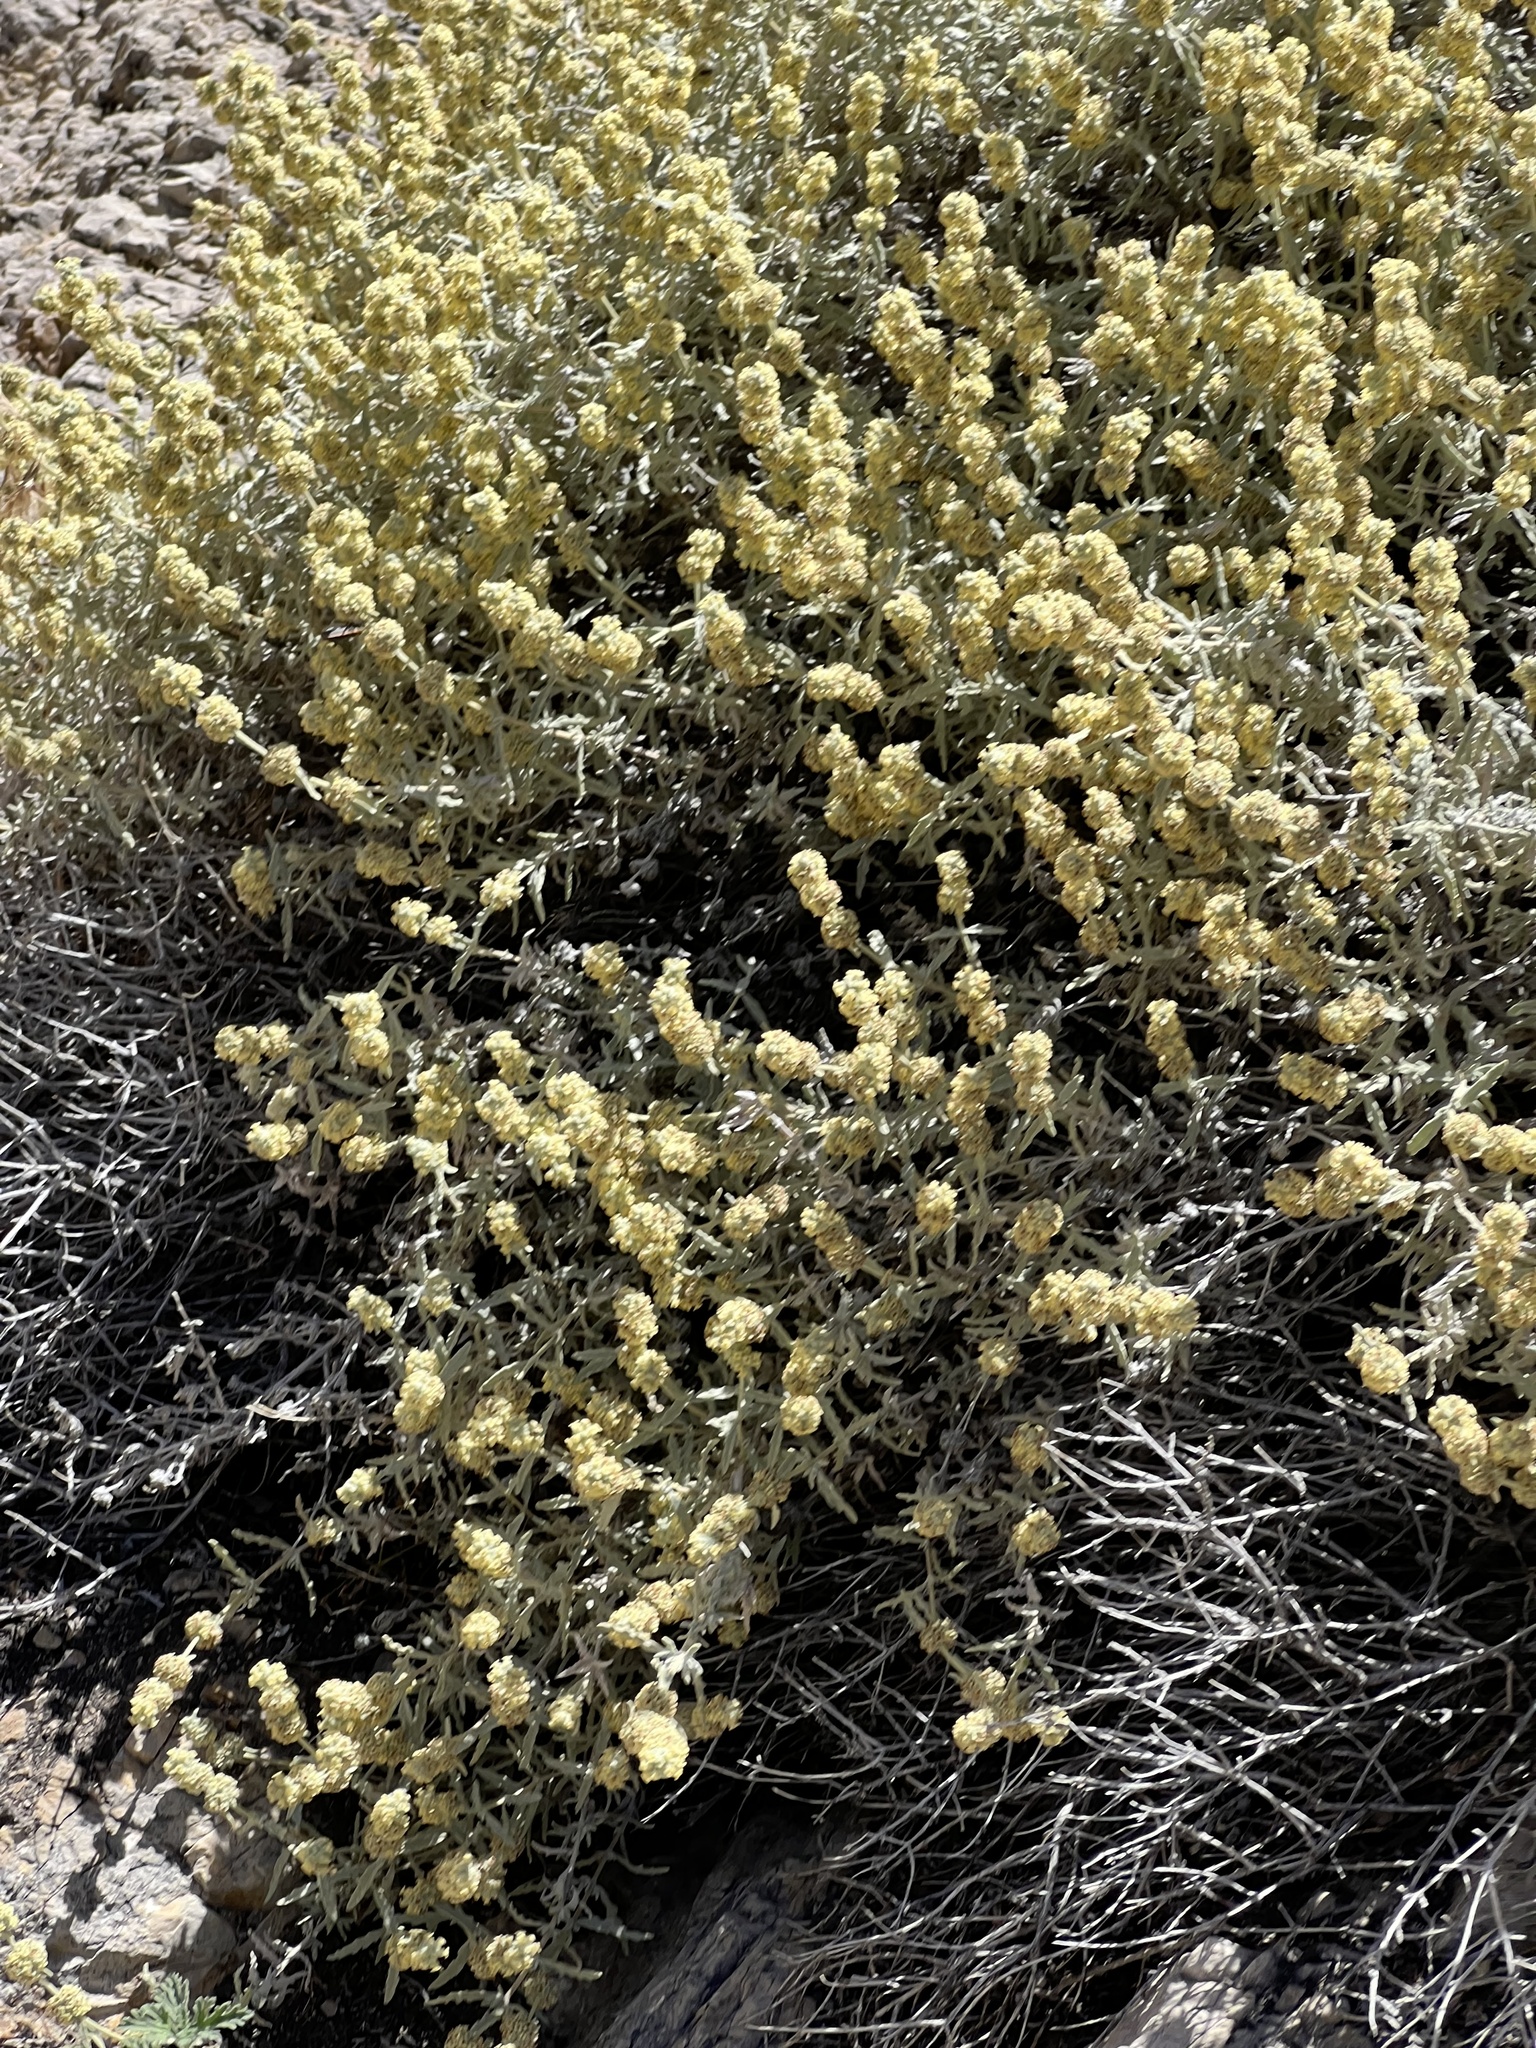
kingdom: Plantae
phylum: Tracheophyta
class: Magnoliopsida
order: Lamiales
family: Scrophulariaceae
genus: Buddleja
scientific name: Buddleja utahensis
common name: Utah butterfly-bush
